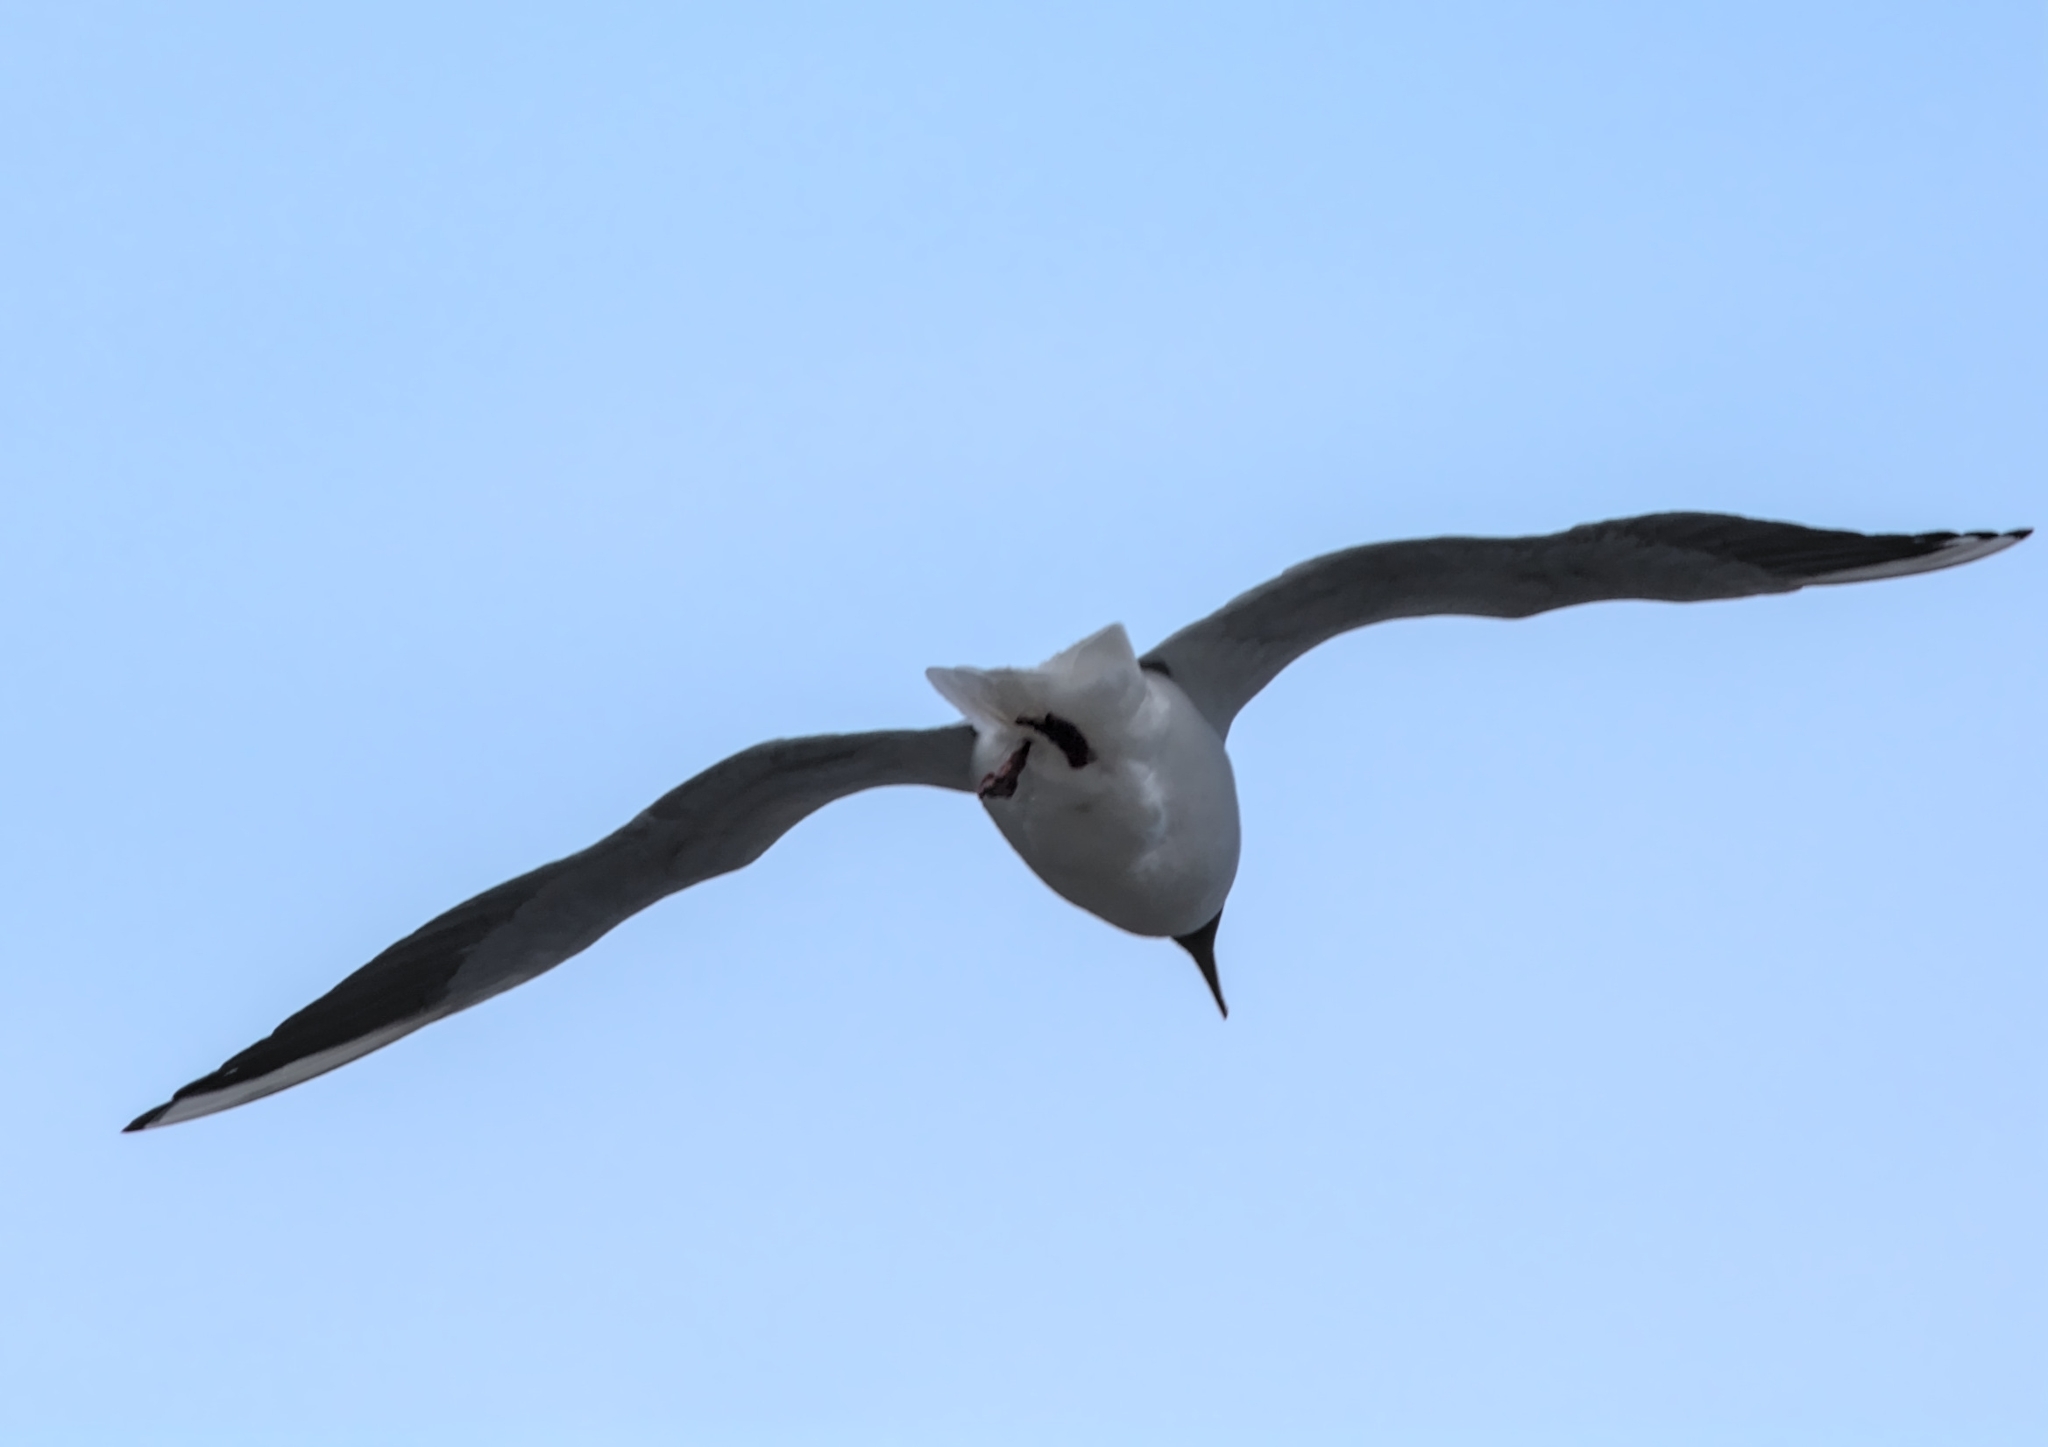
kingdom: Animalia
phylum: Chordata
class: Aves
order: Charadriiformes
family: Laridae
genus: Chroicocephalus
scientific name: Chroicocephalus ridibundus
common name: Black-headed gull
